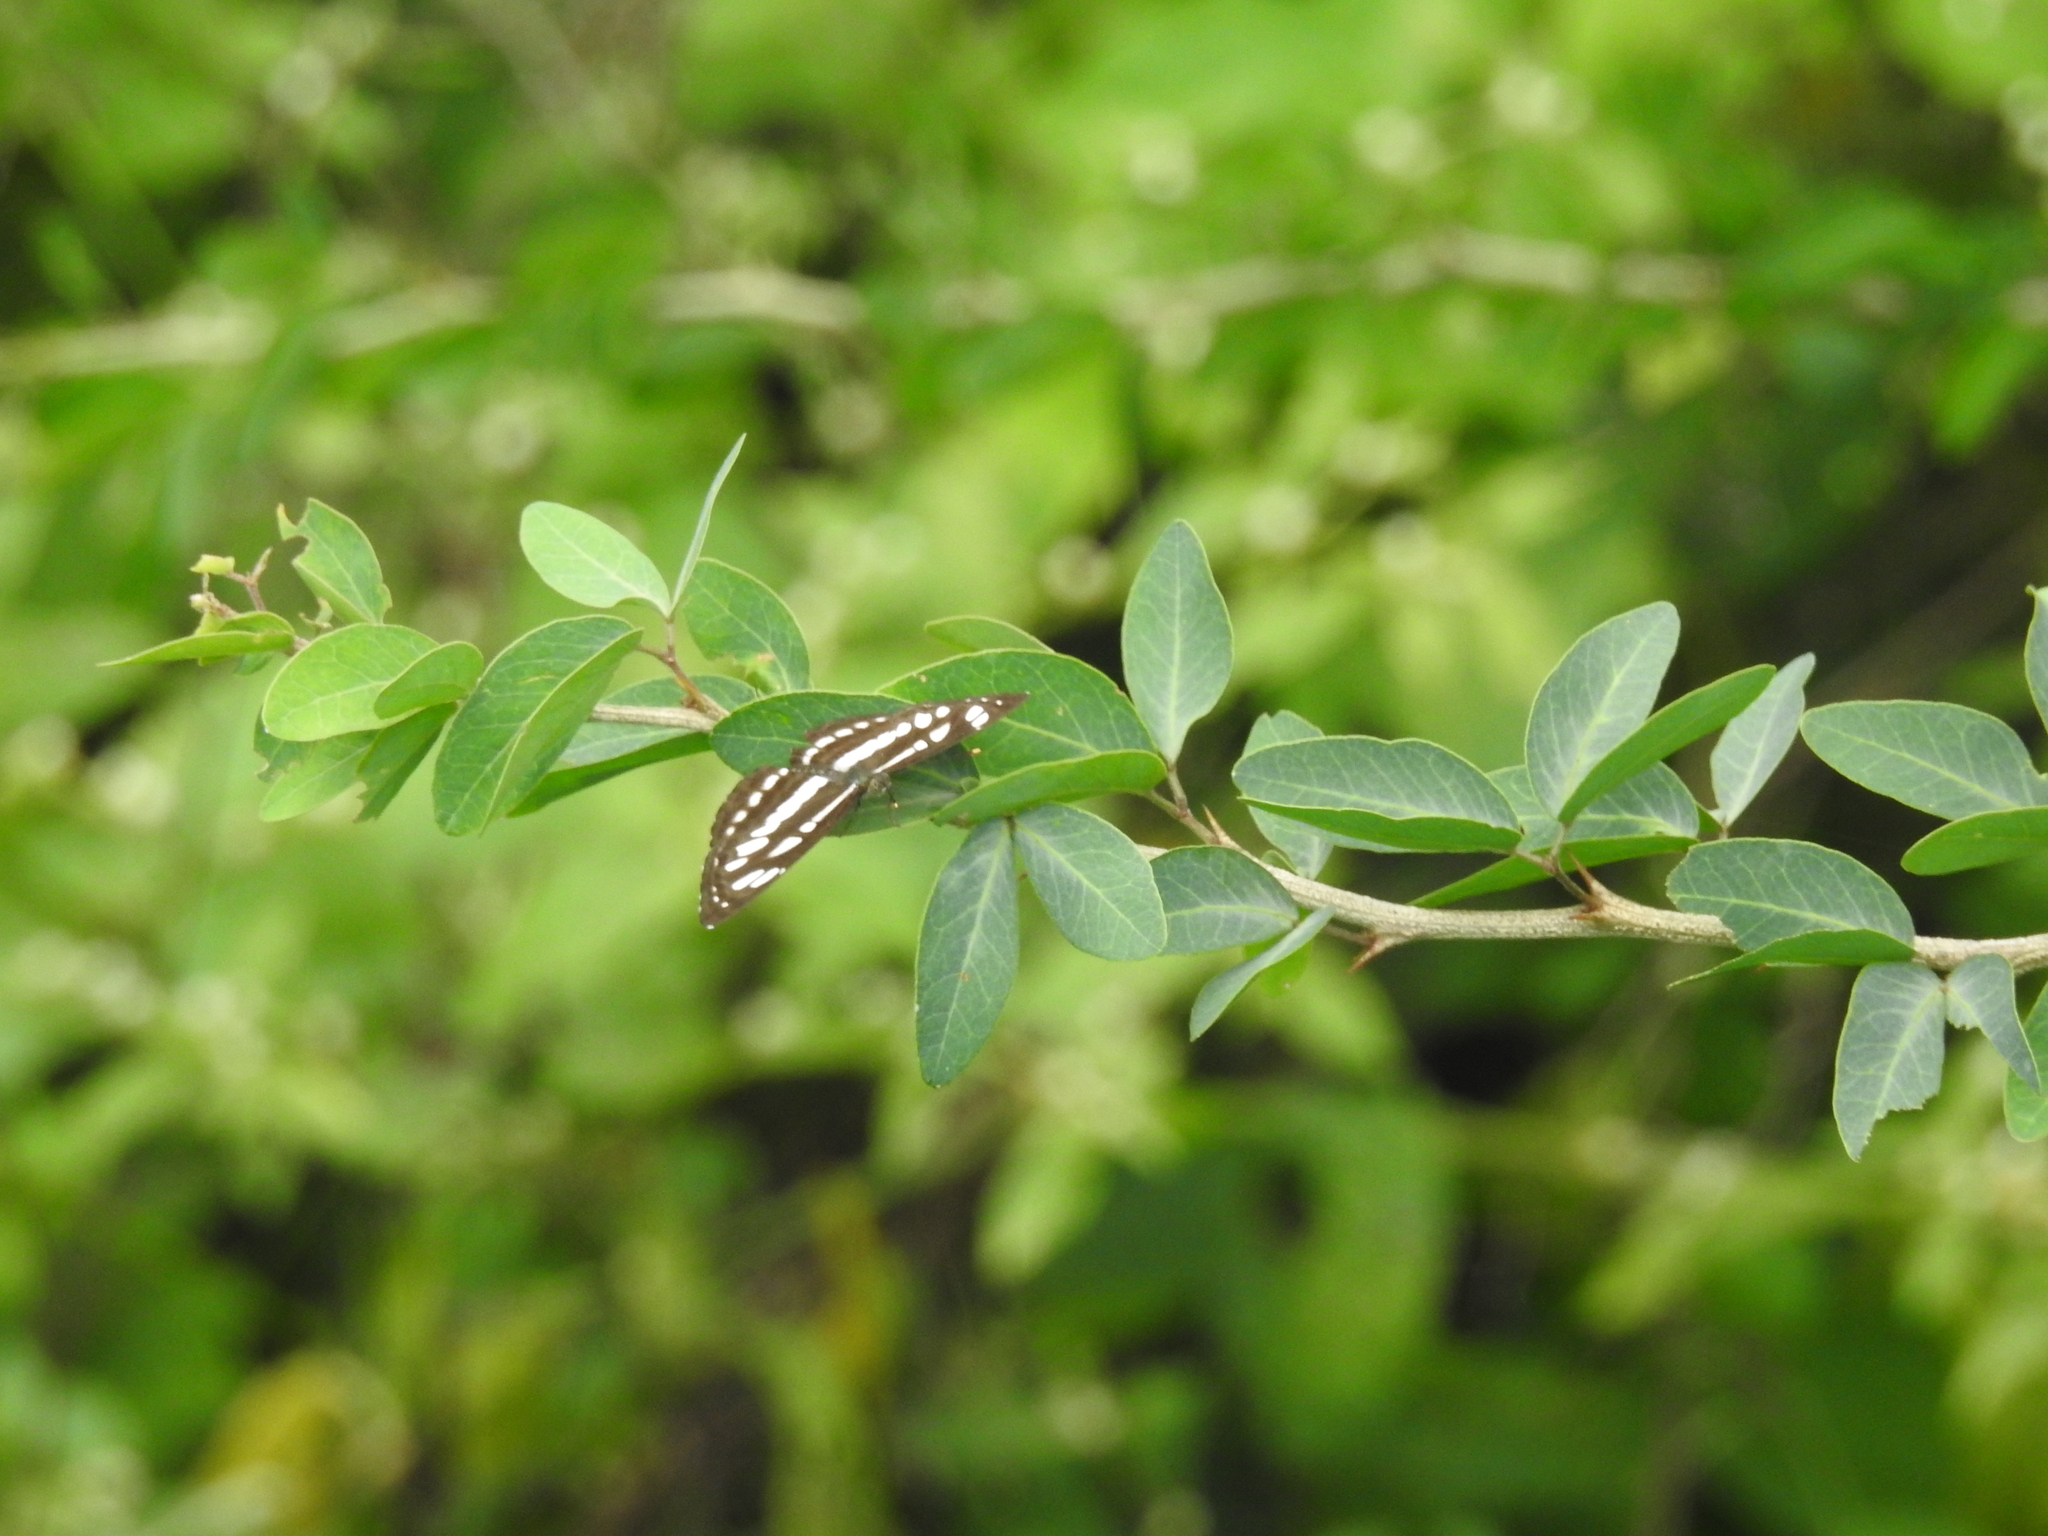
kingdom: Animalia
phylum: Arthropoda
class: Insecta
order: Lepidoptera
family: Nymphalidae
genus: Neptis
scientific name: Neptis hylas
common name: Common sailer
